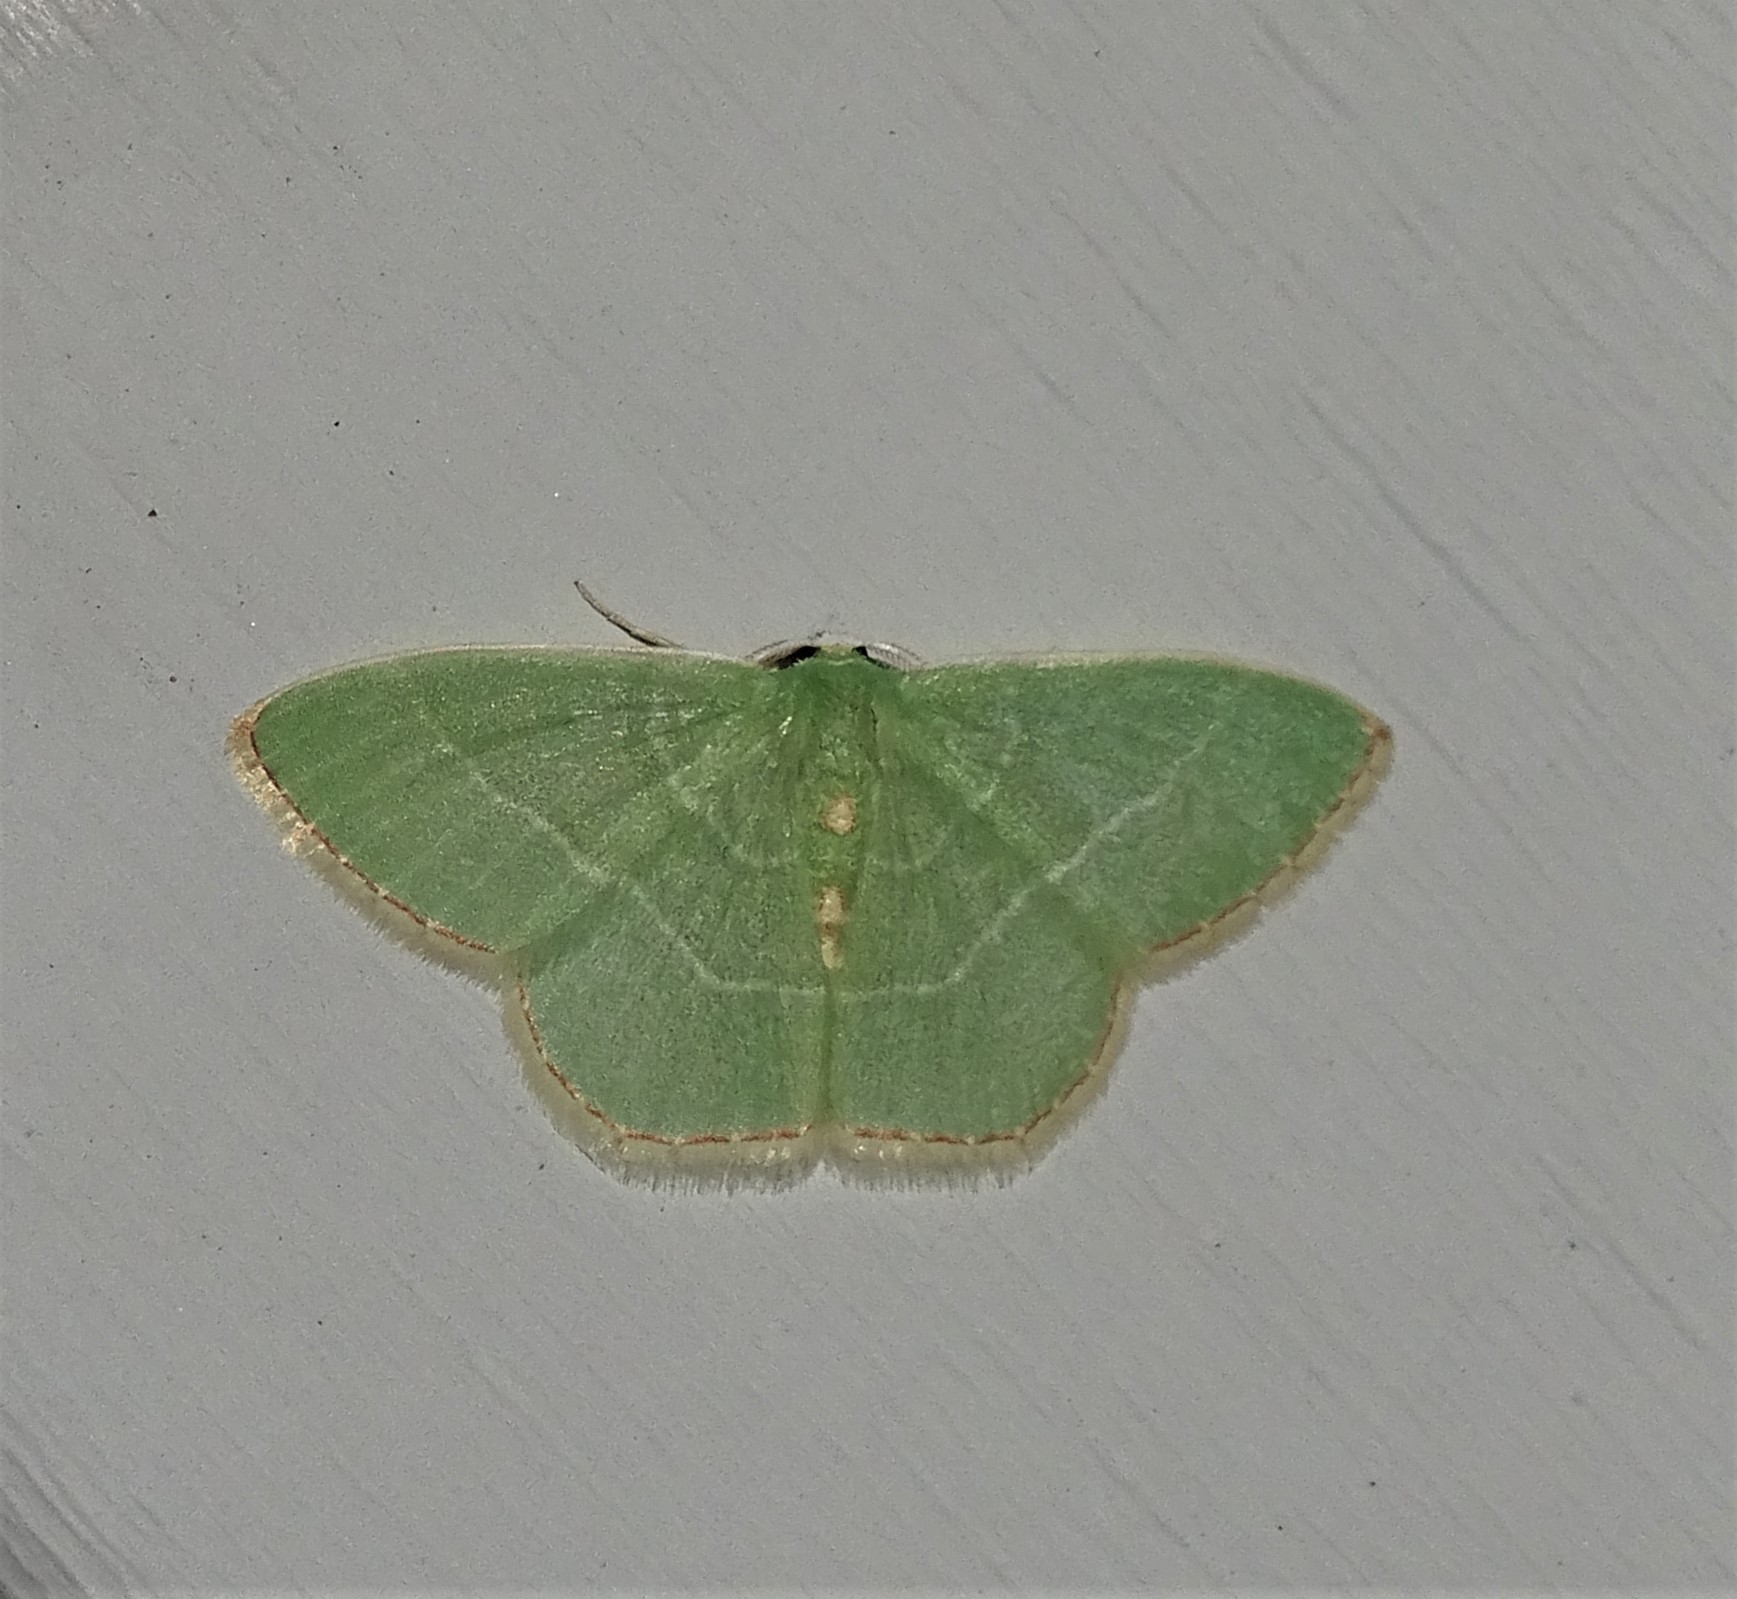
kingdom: Animalia
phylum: Arthropoda
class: Insecta
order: Lepidoptera
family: Geometridae
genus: Nemoria
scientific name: Nemoria bistriaria
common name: Red-fringed emerald
